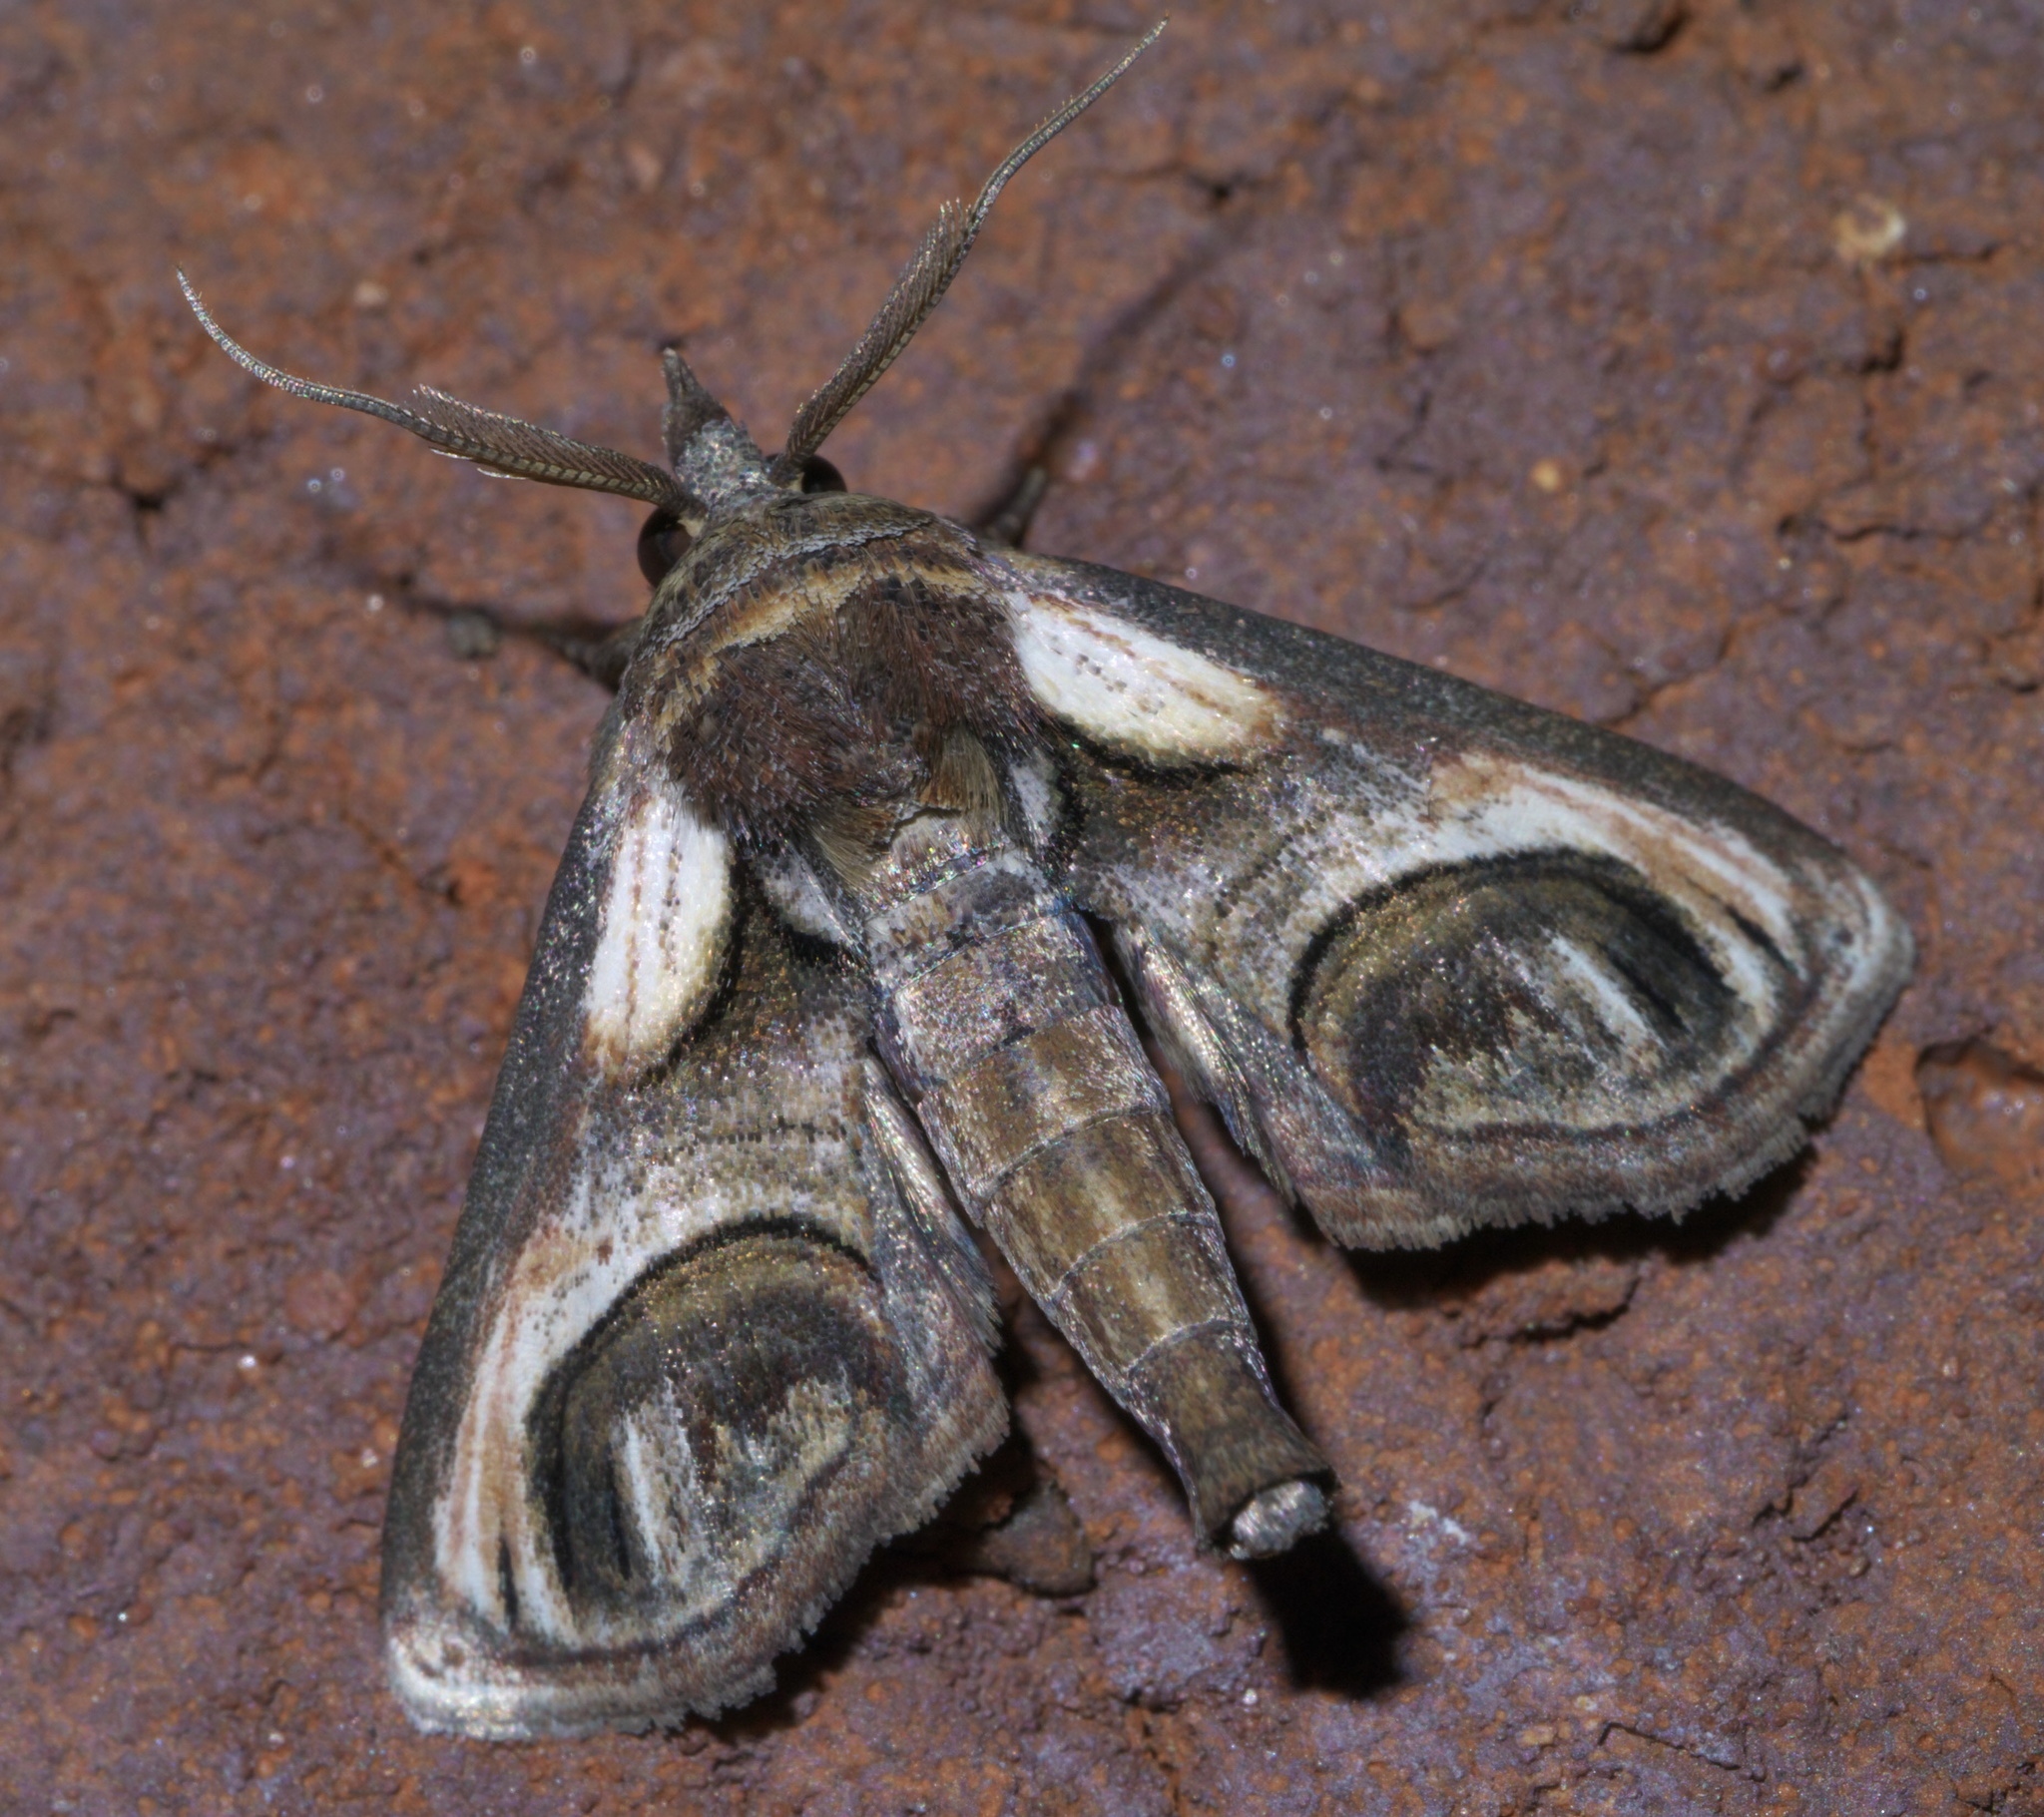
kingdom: Animalia
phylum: Arthropoda
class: Insecta
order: Lepidoptera
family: Euteliidae
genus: Paectes
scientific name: Paectes oculatrix
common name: Eyed paectes moth
